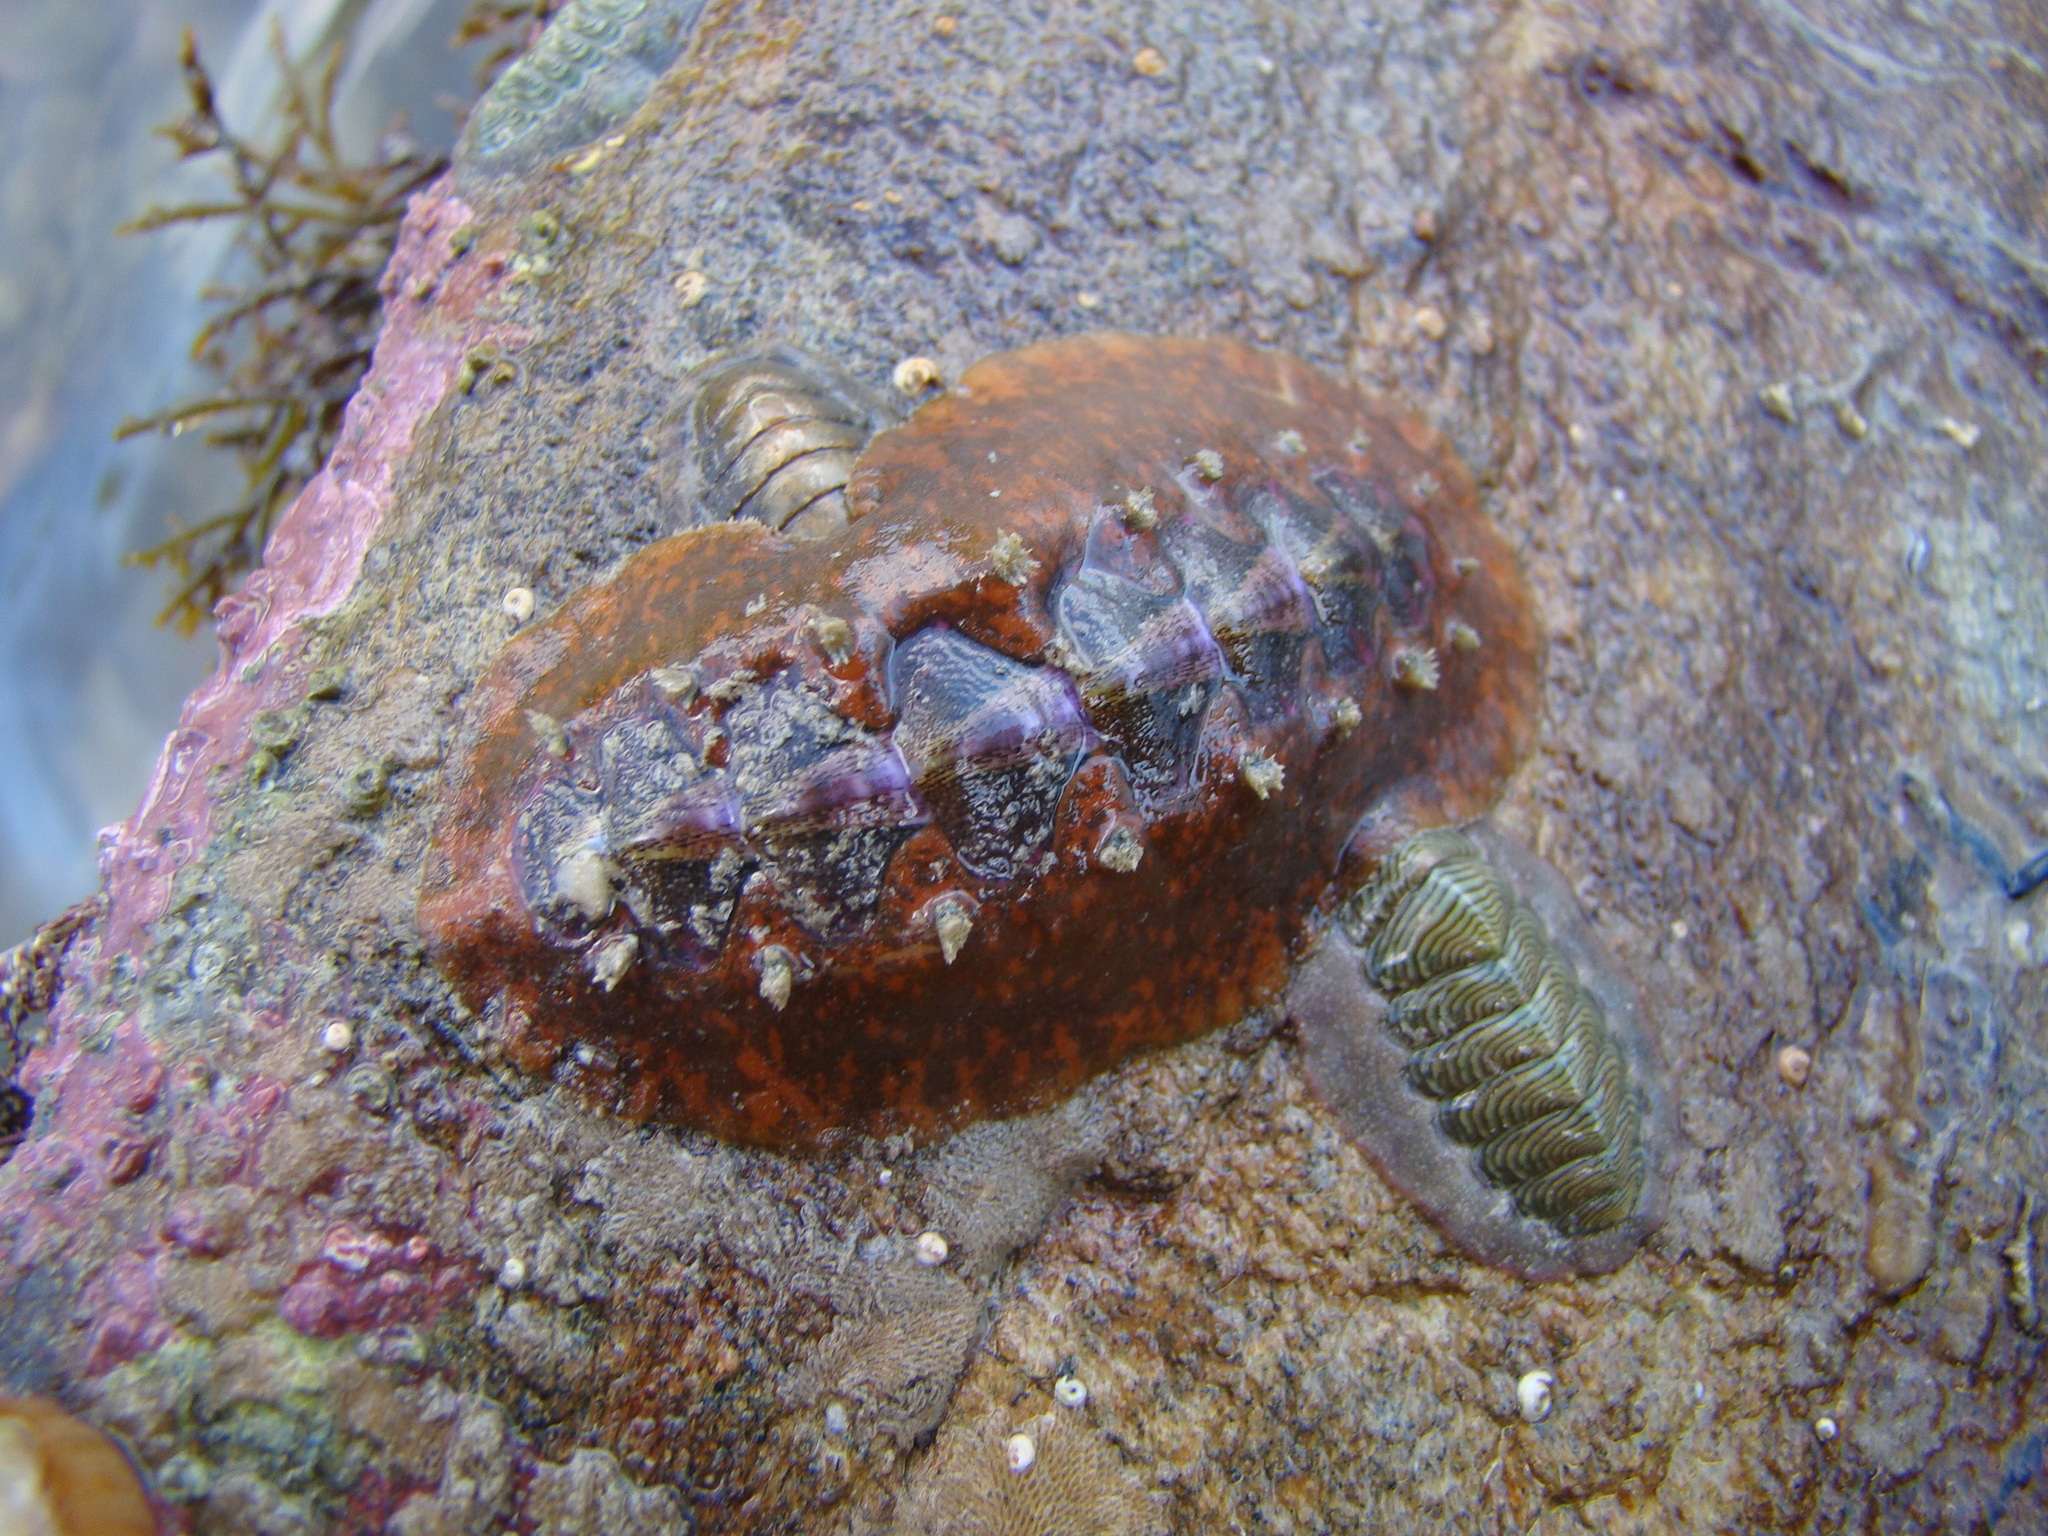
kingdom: Animalia
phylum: Mollusca
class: Polyplacophora
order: Chitonida
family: Acanthochitonidae
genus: Notoplax
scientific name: Notoplax violacea
